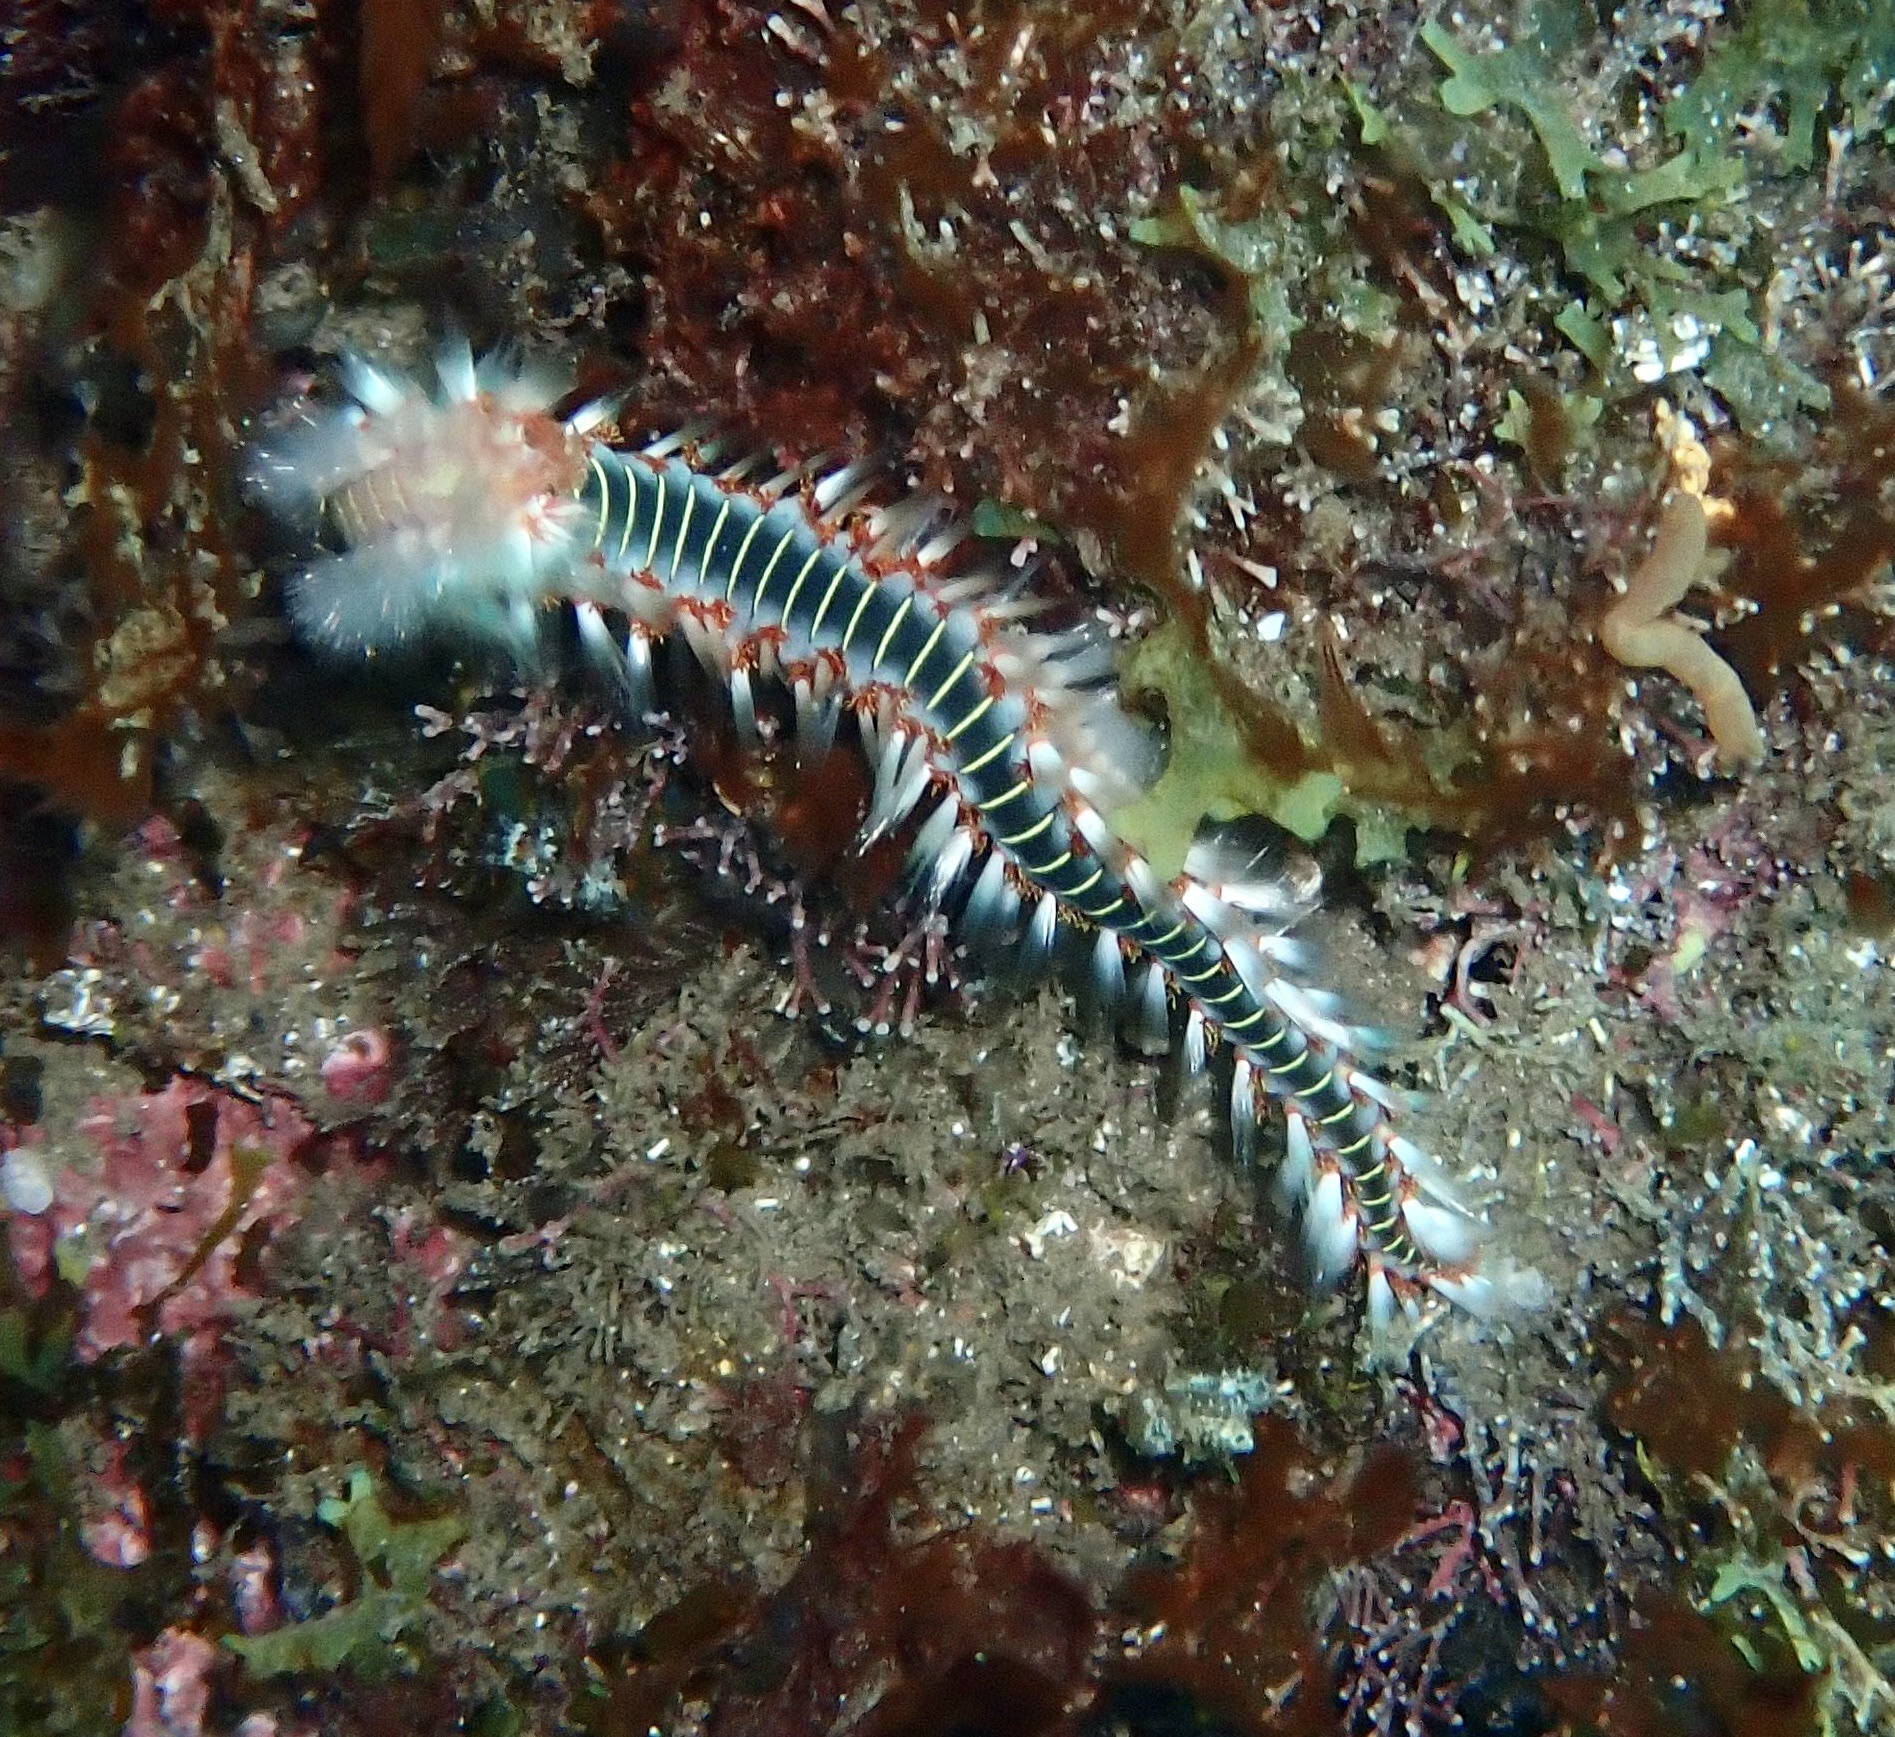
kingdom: Animalia
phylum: Annelida
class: Polychaeta
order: Amphinomida
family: Amphinomidae
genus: Hermodice
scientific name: Hermodice carunculata
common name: Bearded fireworm
